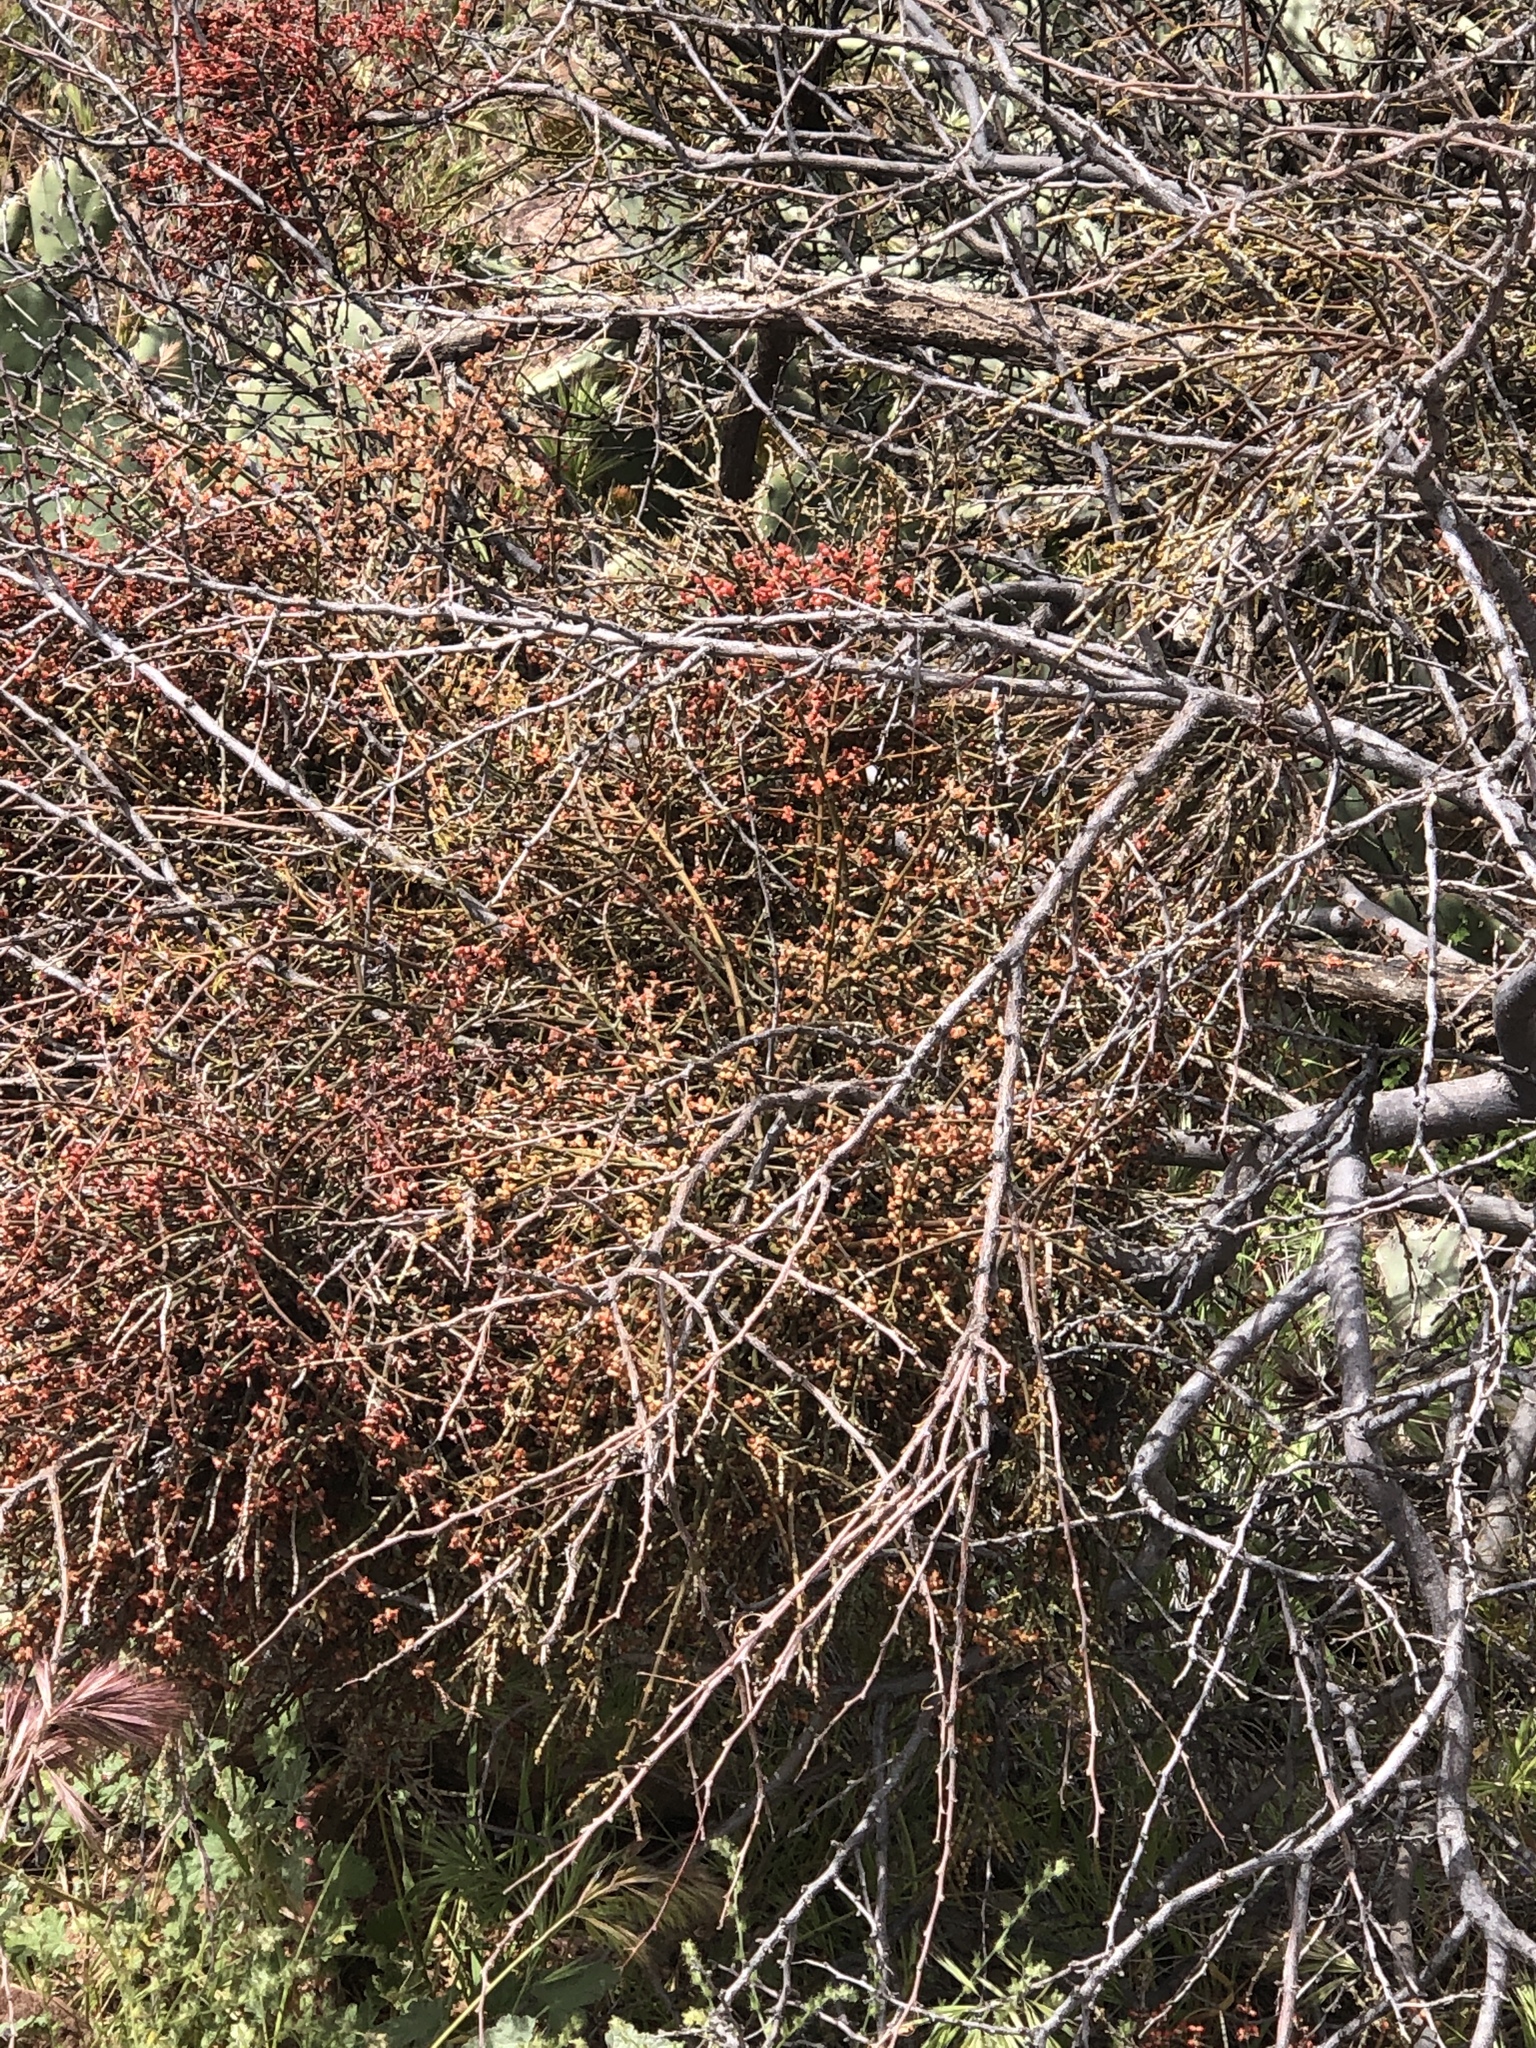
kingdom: Plantae
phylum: Tracheophyta
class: Magnoliopsida
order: Santalales
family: Viscaceae
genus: Phoradendron
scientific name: Phoradendron californicum
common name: Acacia mistletoe
